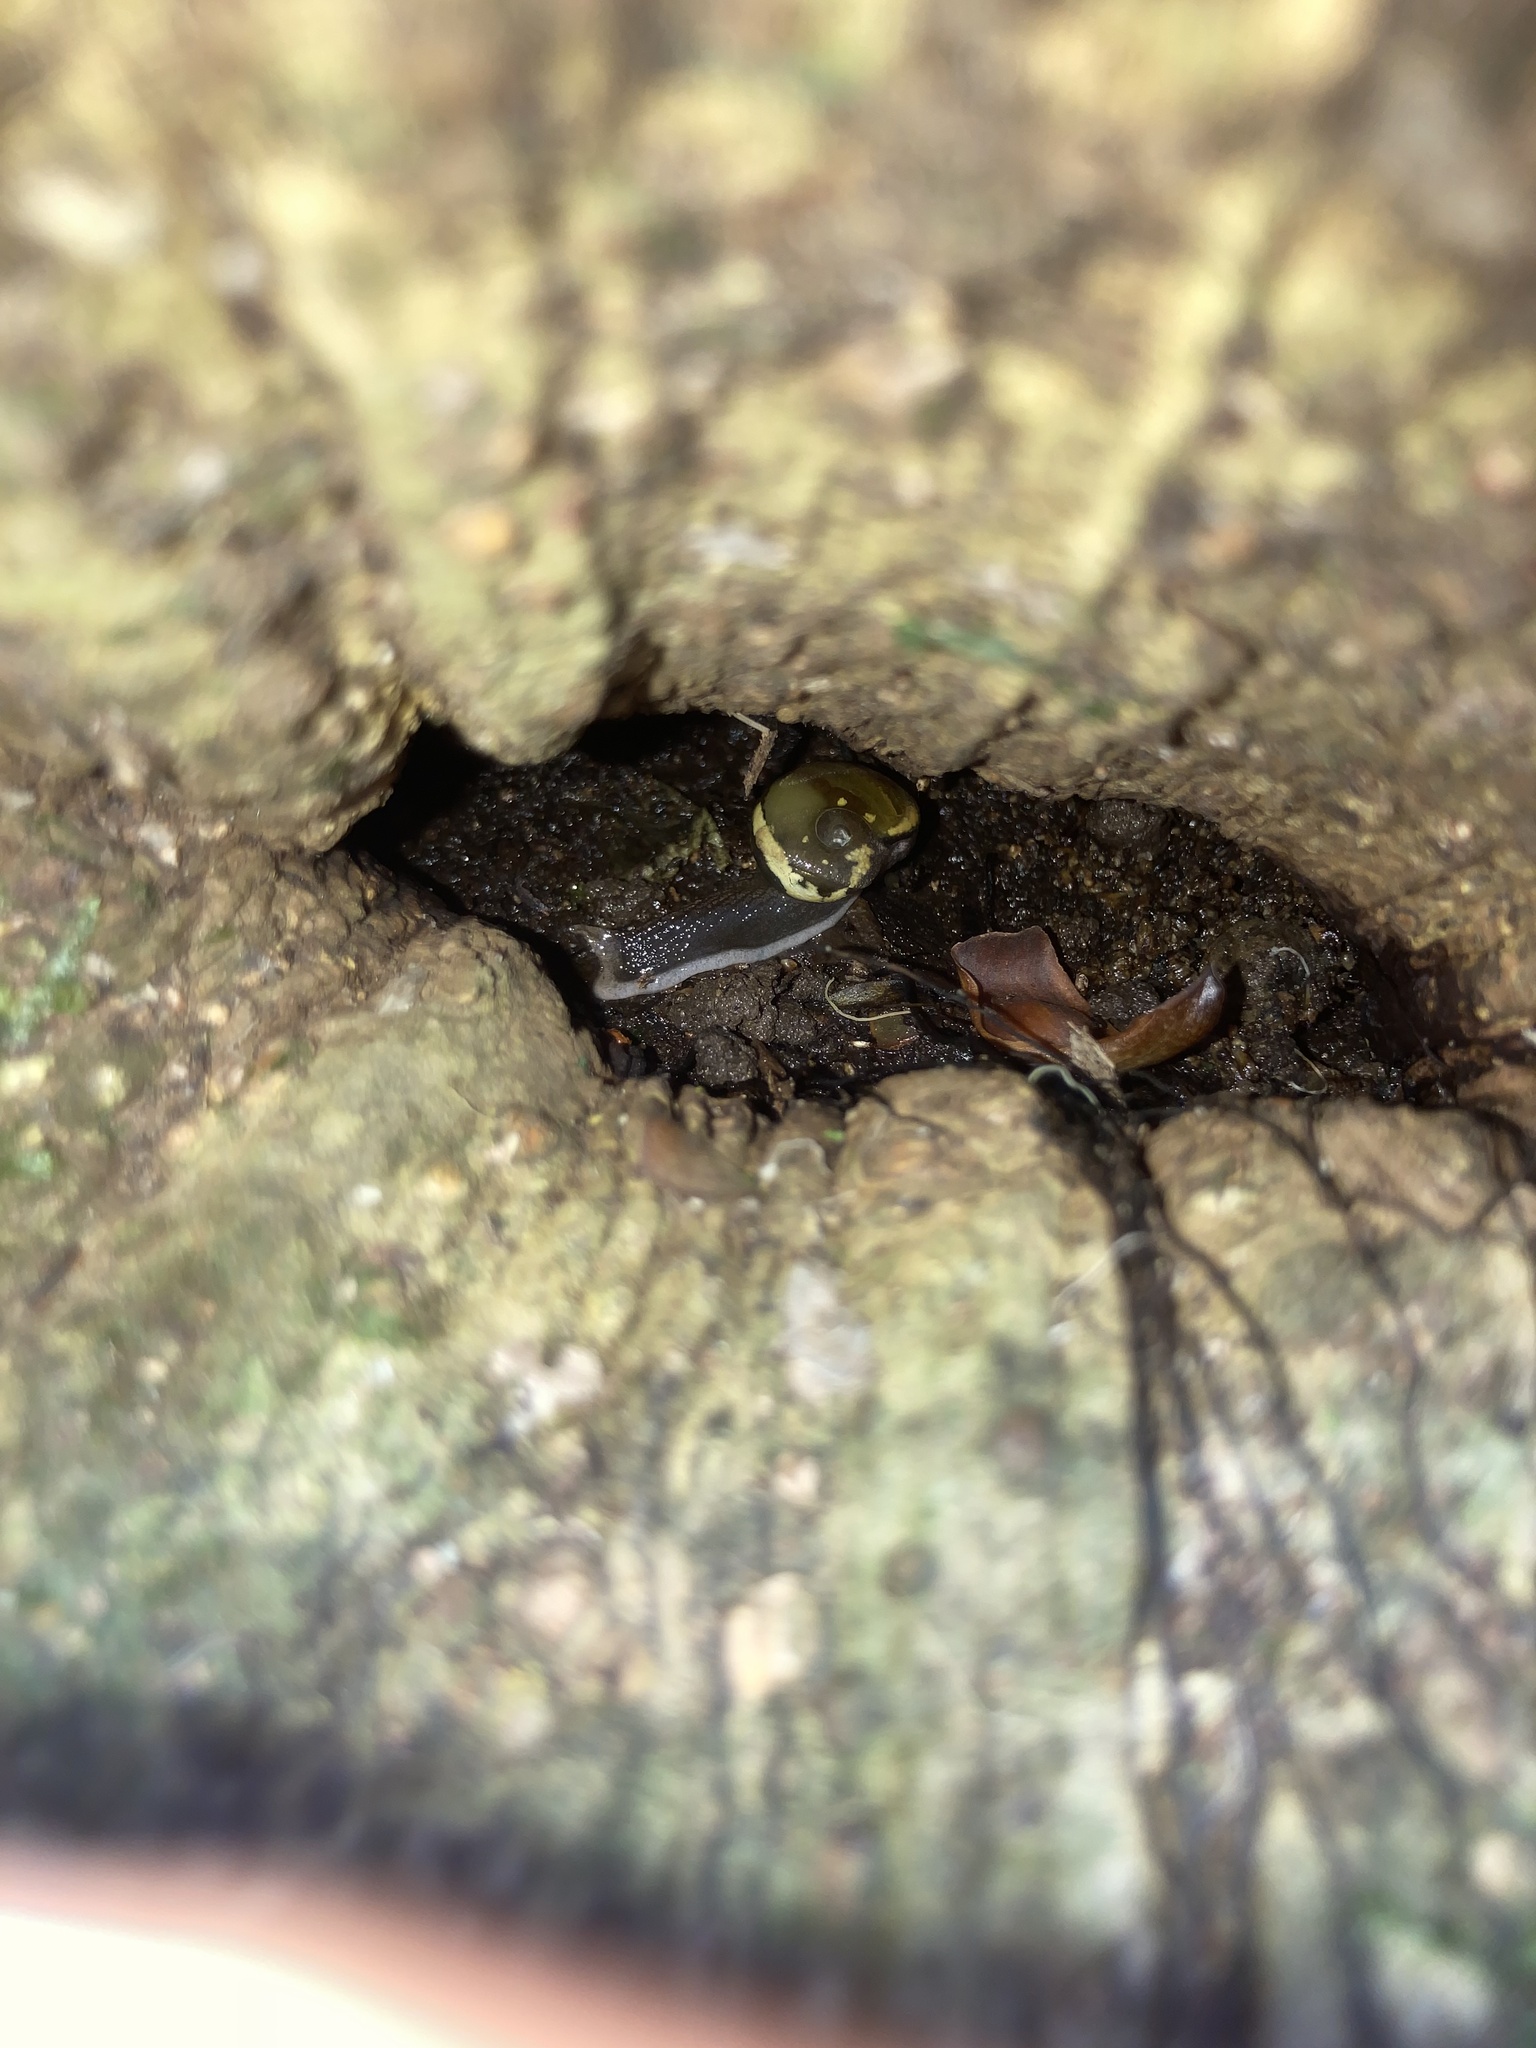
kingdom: Animalia
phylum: Mollusca
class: Gastropoda
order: Stylommatophora
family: Helicarionidae
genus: Helicarion
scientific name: Helicarion mastersi
